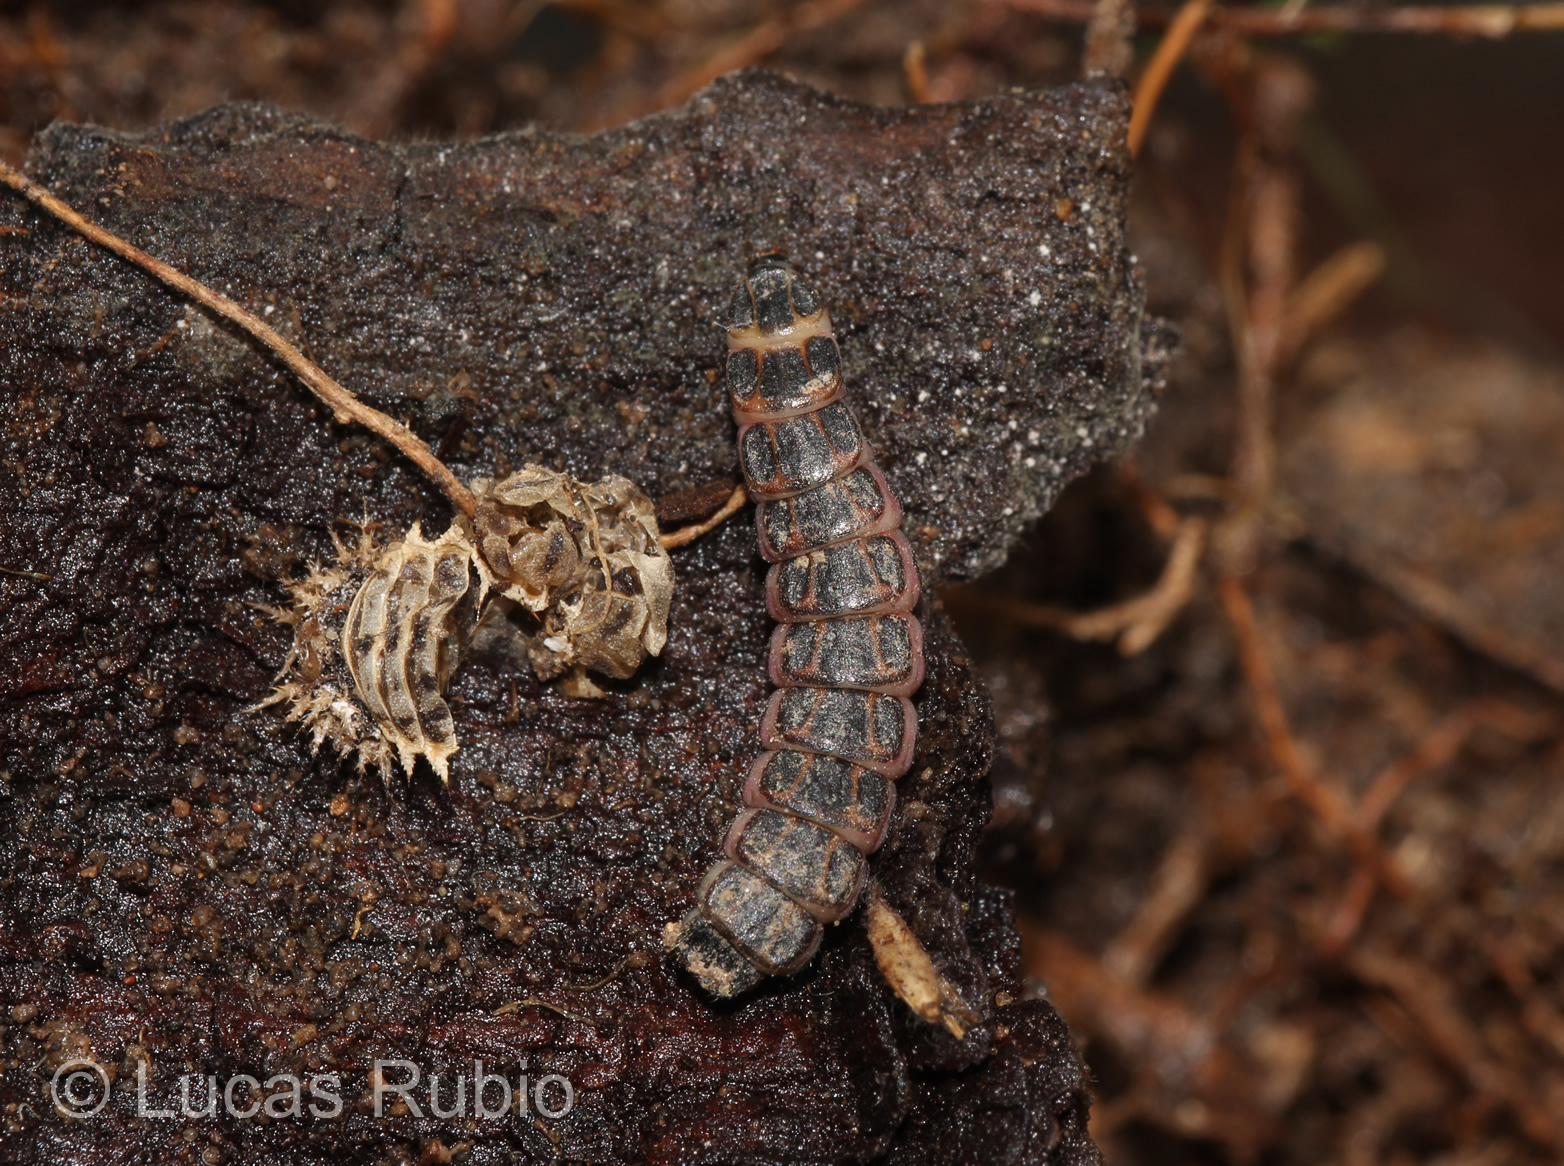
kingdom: Animalia
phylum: Arthropoda
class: Insecta
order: Coleoptera
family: Lampyridae
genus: Photinus
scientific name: Photinus signaticollis
